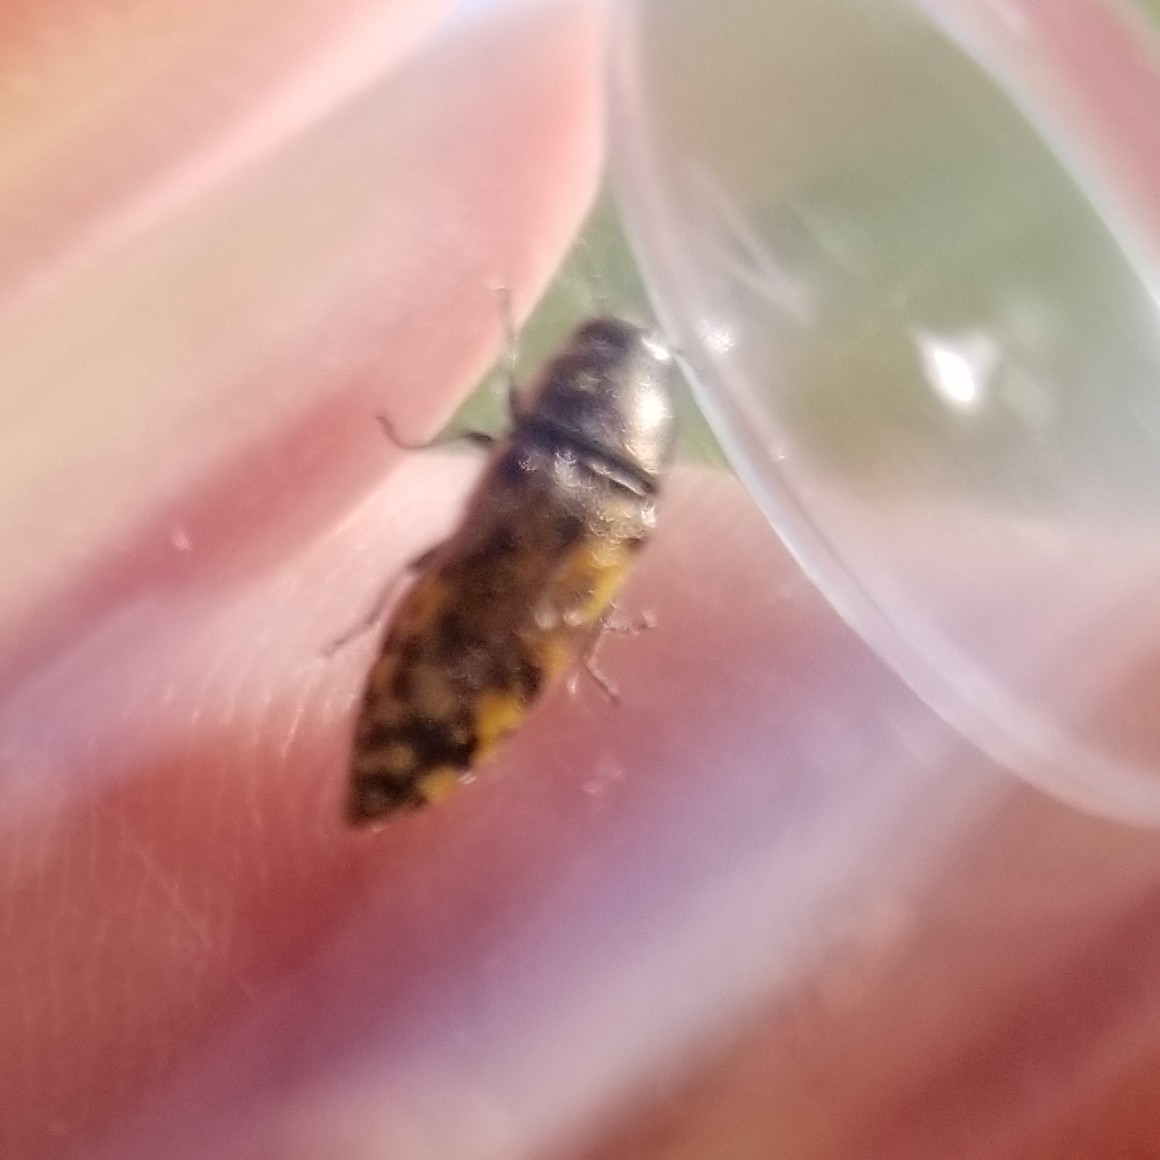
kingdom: Animalia
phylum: Arthropoda
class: Insecta
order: Coleoptera
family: Buprestidae
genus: Acmaeodera
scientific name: Acmaeodera mixta
